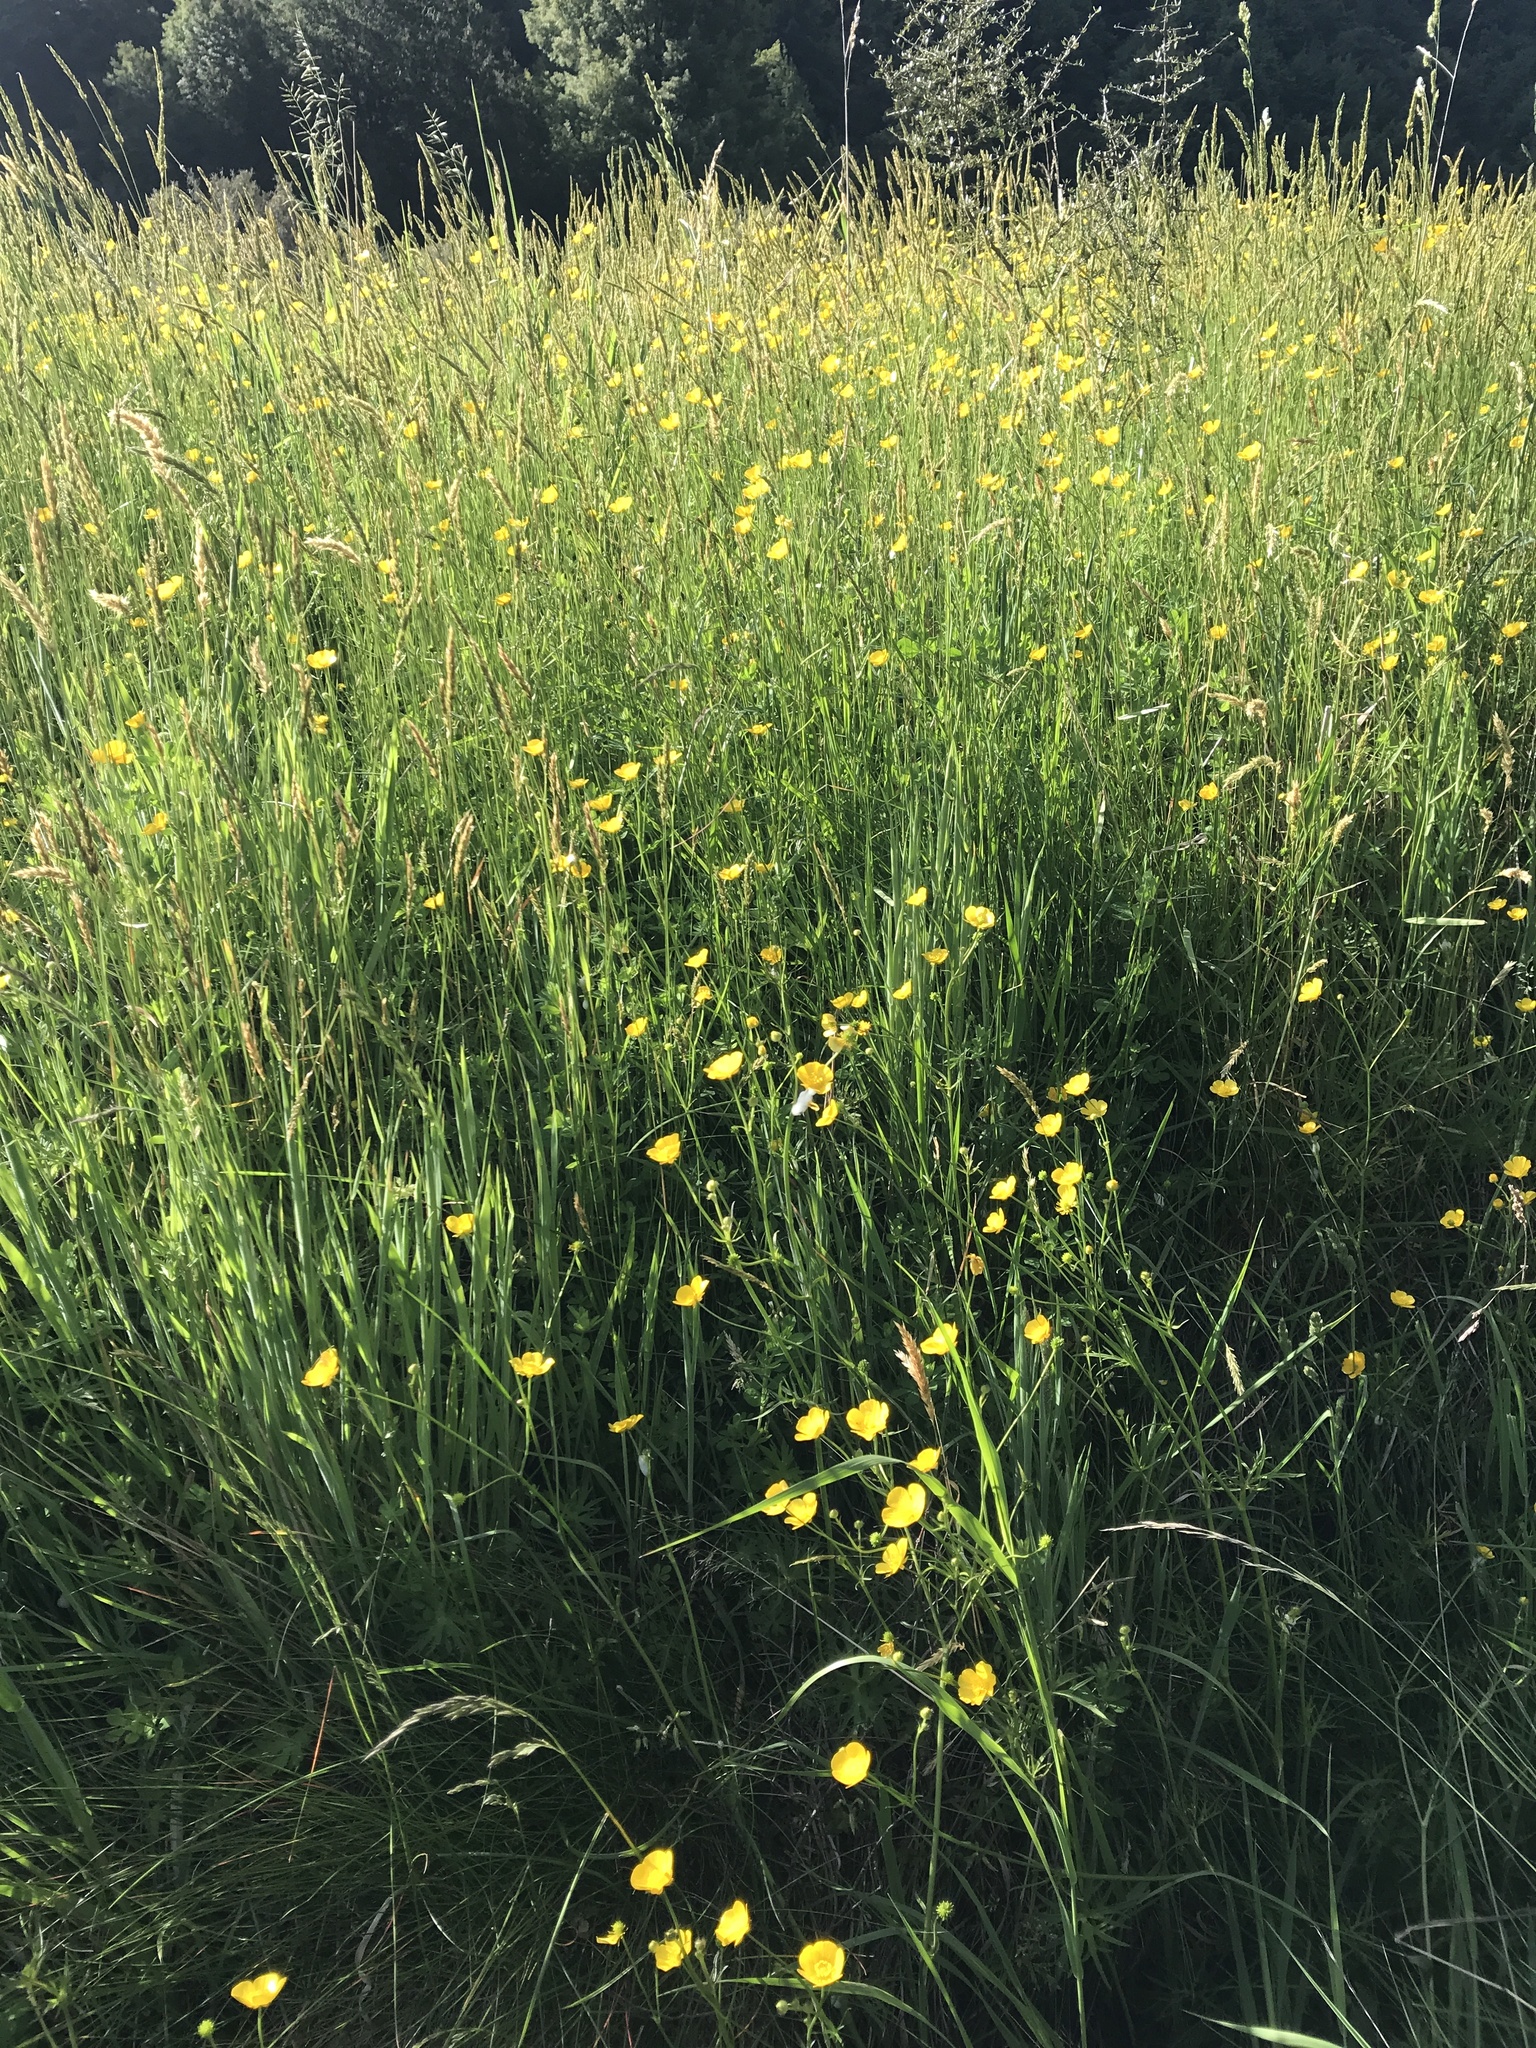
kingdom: Plantae
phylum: Tracheophyta
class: Magnoliopsida
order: Ranunculales
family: Ranunculaceae
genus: Ranunculus
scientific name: Ranunculus acris
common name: Meadow buttercup
